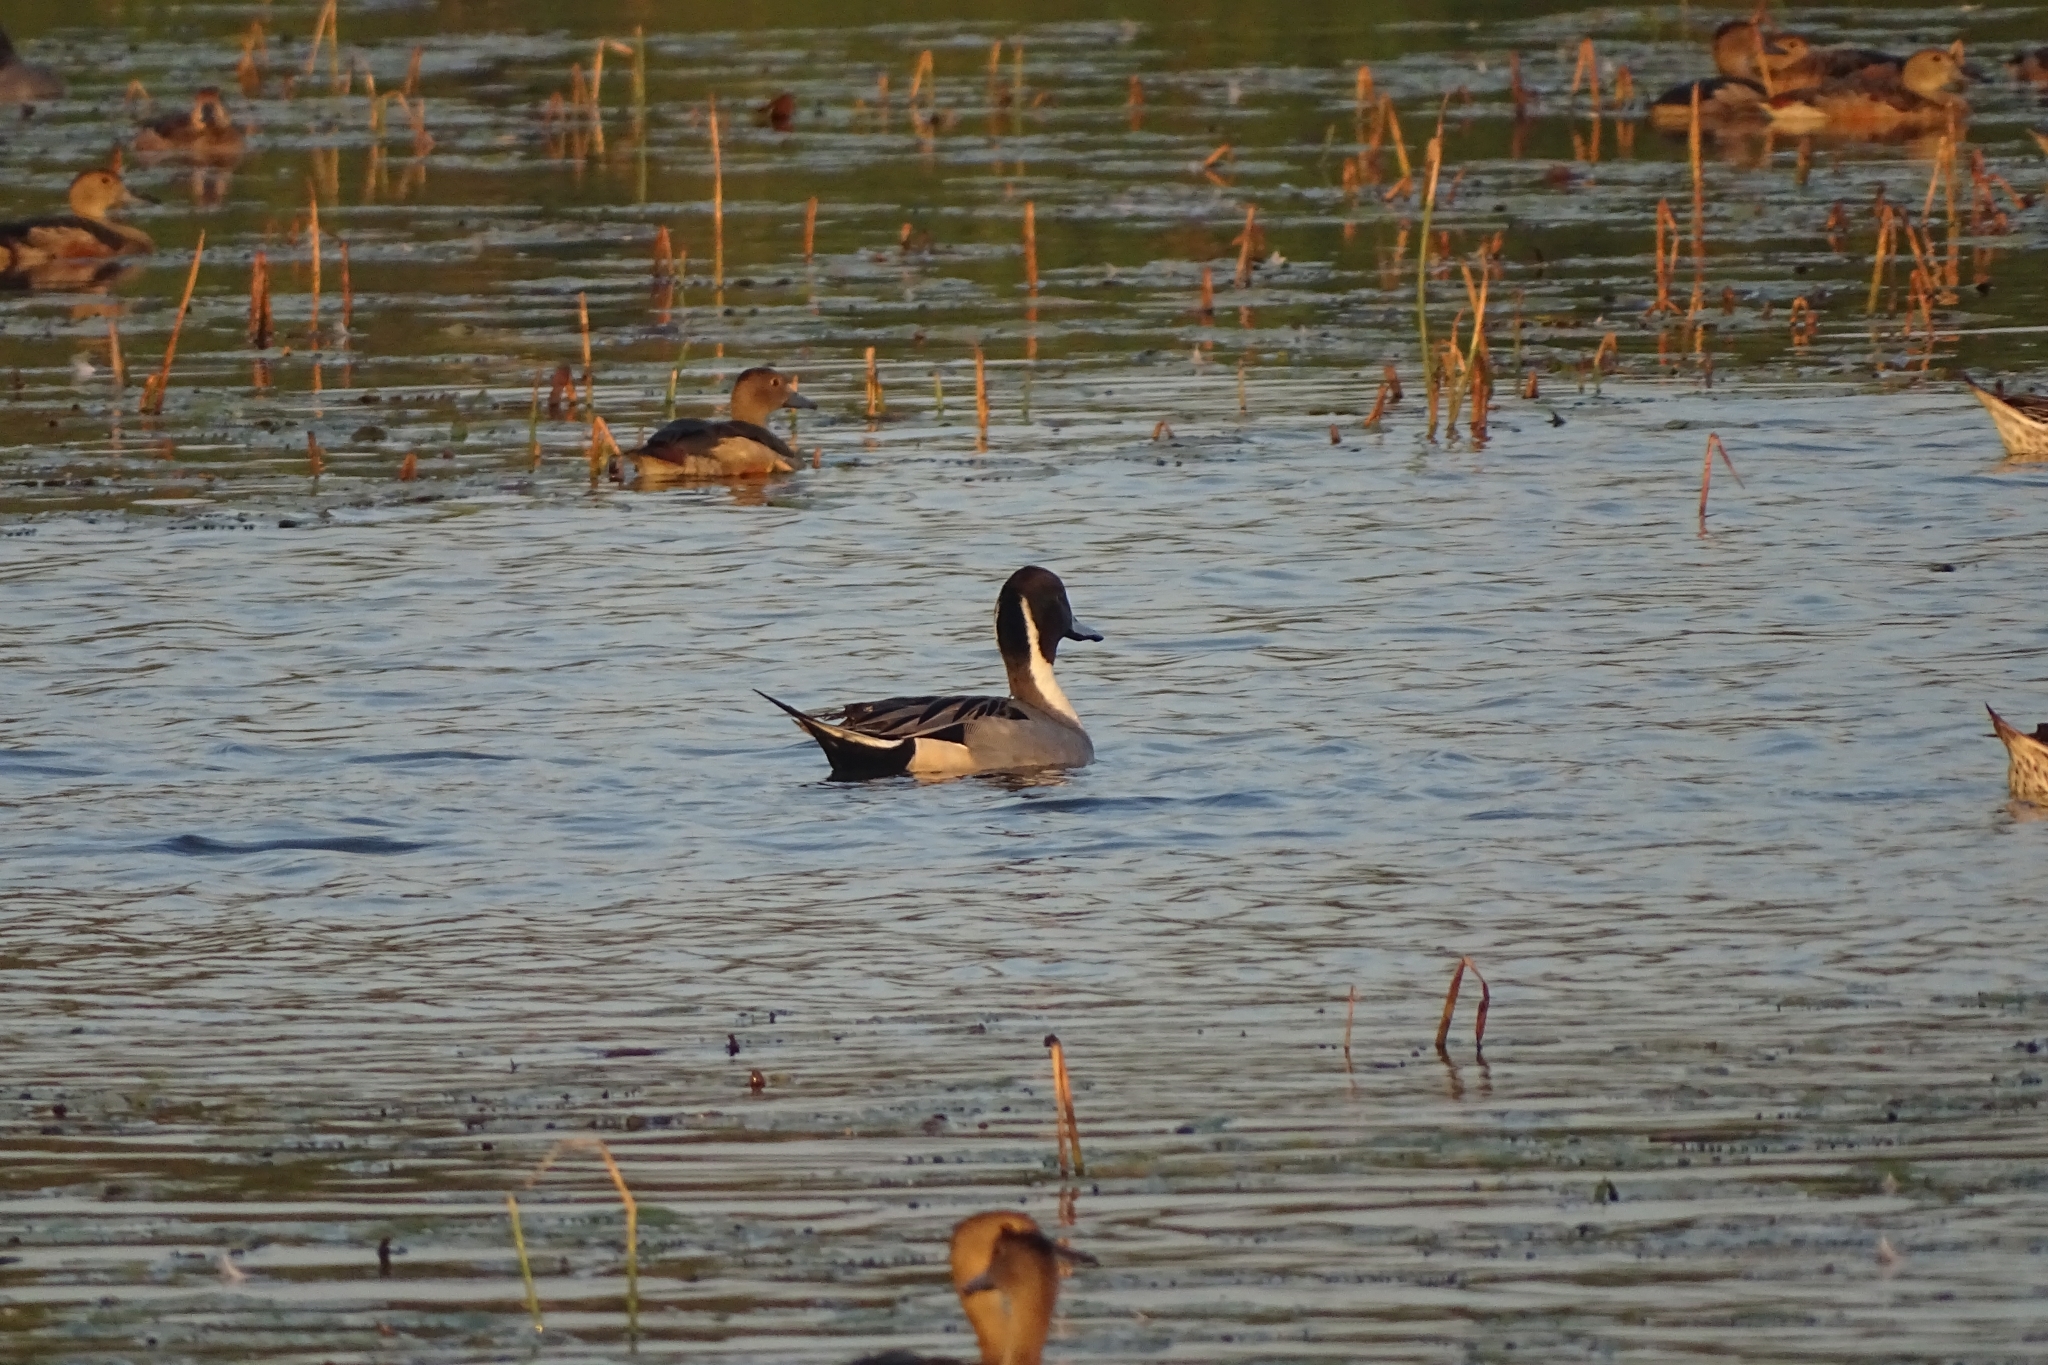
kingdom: Animalia
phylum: Chordata
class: Aves
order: Anseriformes
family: Anatidae
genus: Anas
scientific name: Anas acuta
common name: Northern pintail
